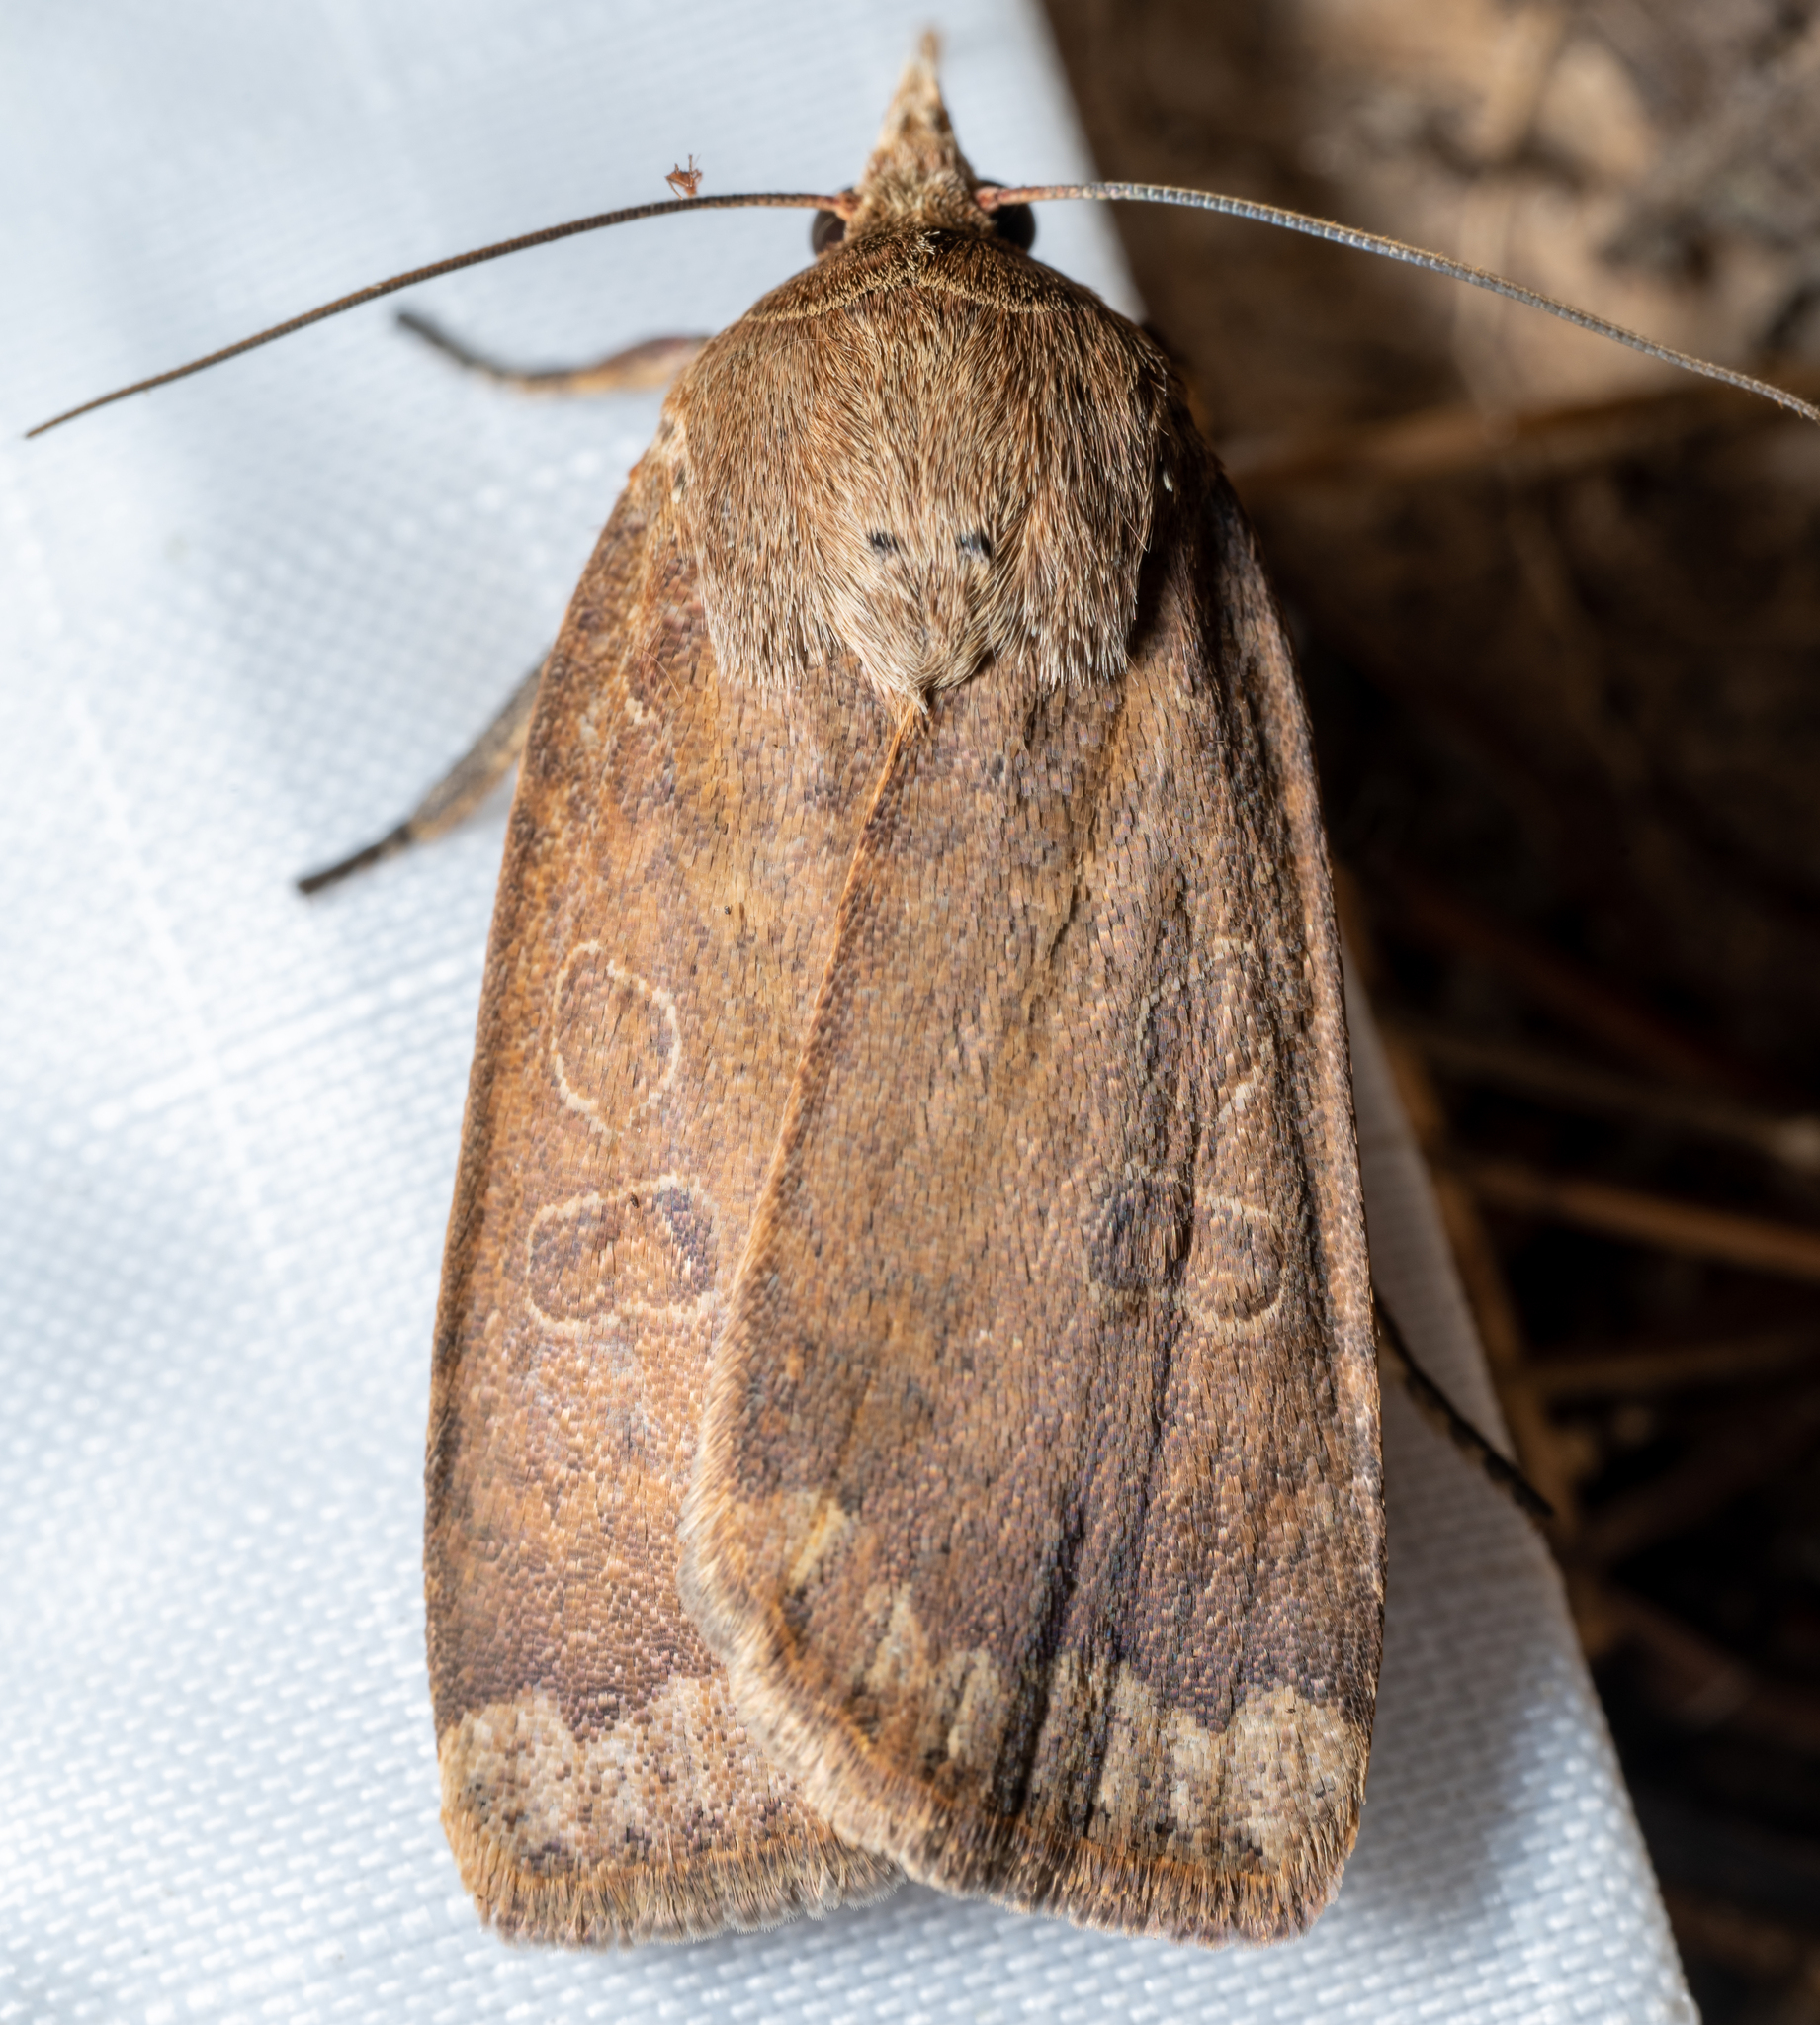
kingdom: Animalia
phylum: Arthropoda
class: Insecta
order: Lepidoptera
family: Noctuidae
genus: Abagrotis
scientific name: Abagrotis alternata
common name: Greater red dart
